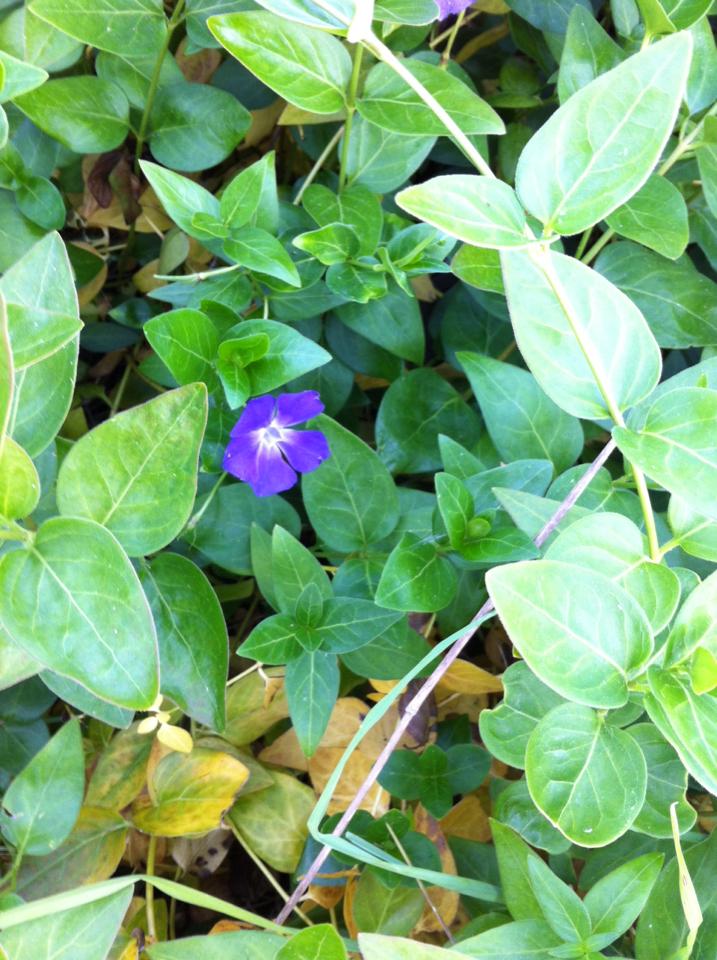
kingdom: Plantae
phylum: Tracheophyta
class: Magnoliopsida
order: Gentianales
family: Apocynaceae
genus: Vinca
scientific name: Vinca major
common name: Greater periwinkle
